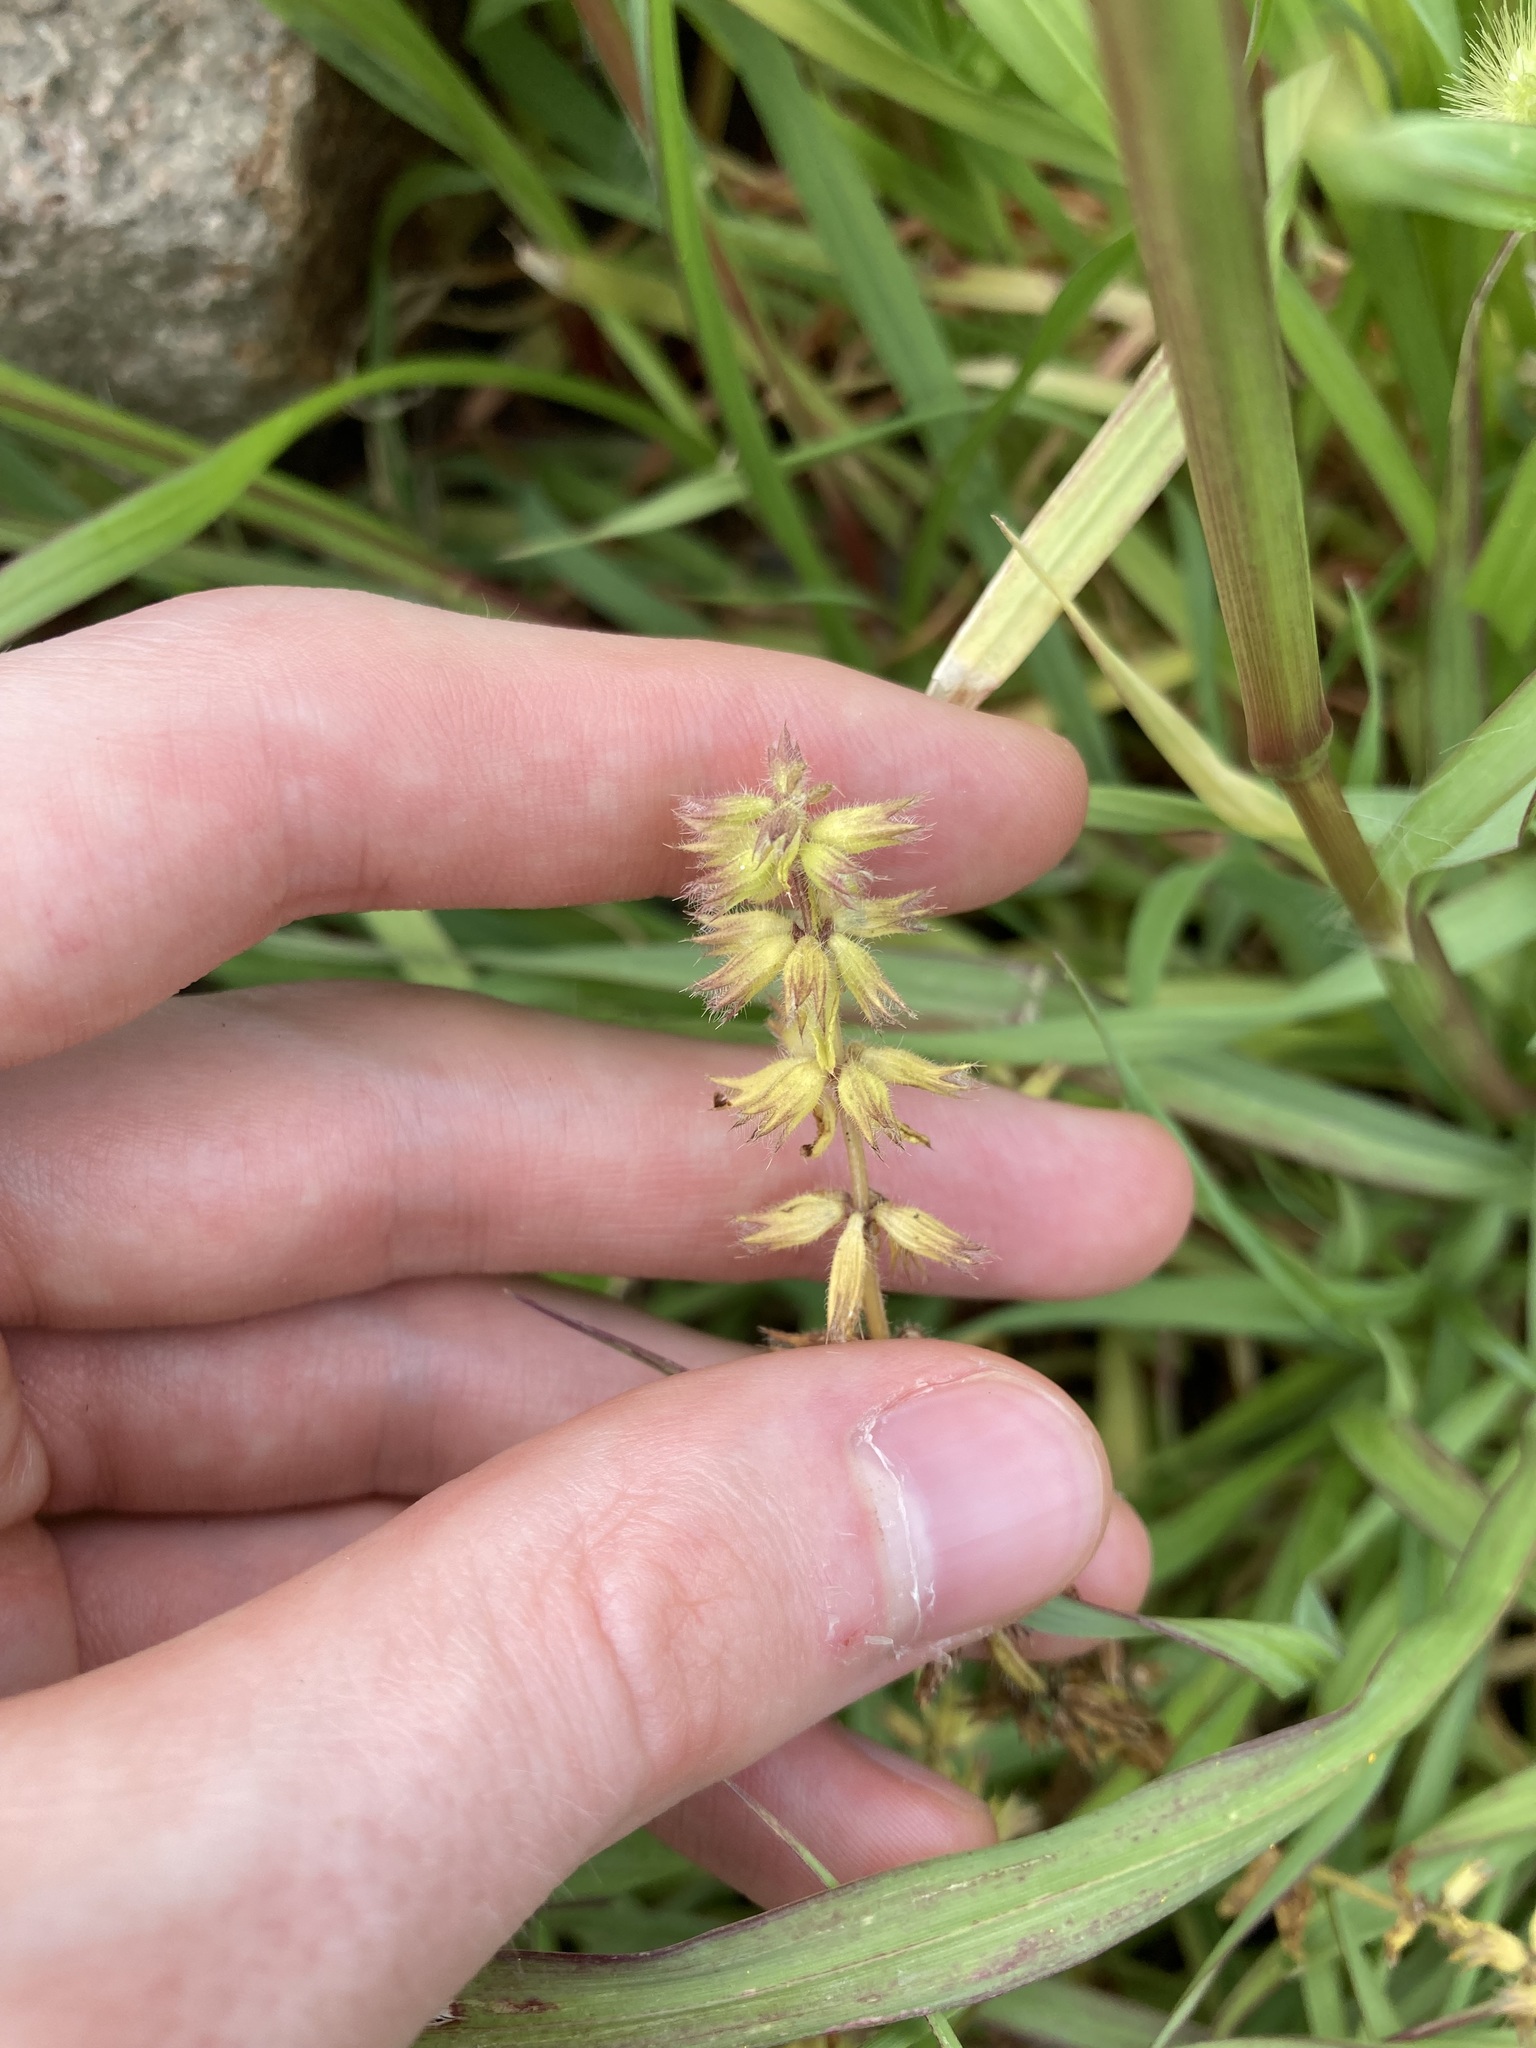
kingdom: Plantae
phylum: Tracheophyta
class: Magnoliopsida
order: Lamiales
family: Lamiaceae
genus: Stachys
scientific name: Stachys arvensis
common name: Field woundwort
